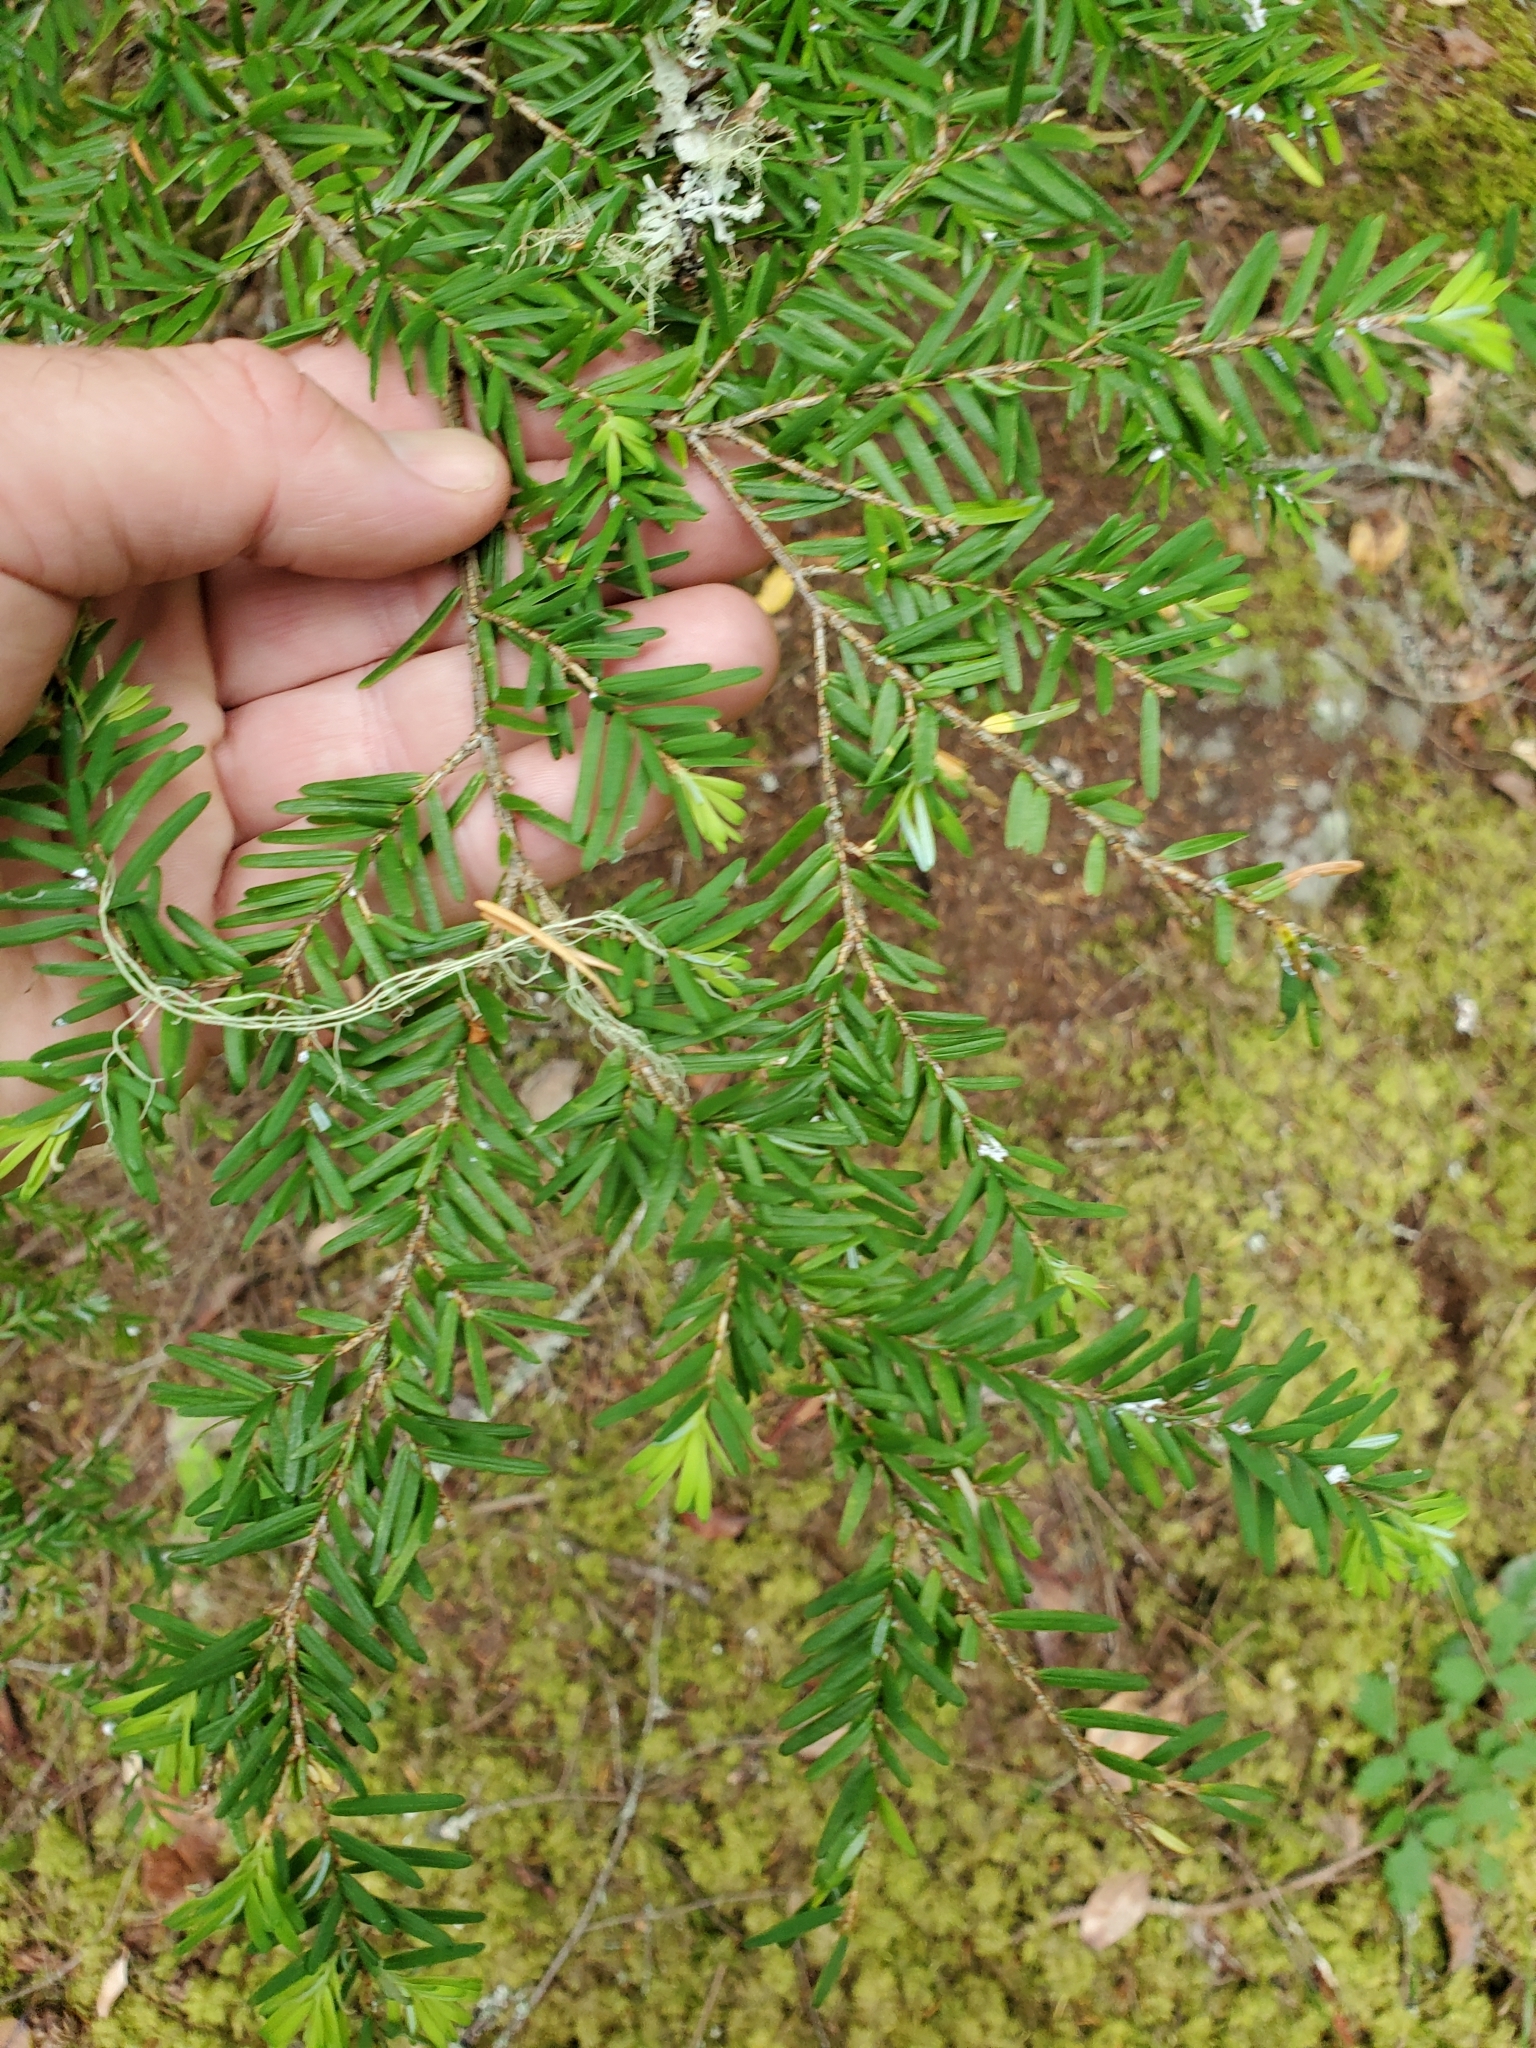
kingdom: Plantae
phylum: Tracheophyta
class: Pinopsida
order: Pinales
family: Pinaceae
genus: Tsuga
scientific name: Tsuga heterophylla
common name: Western hemlock
